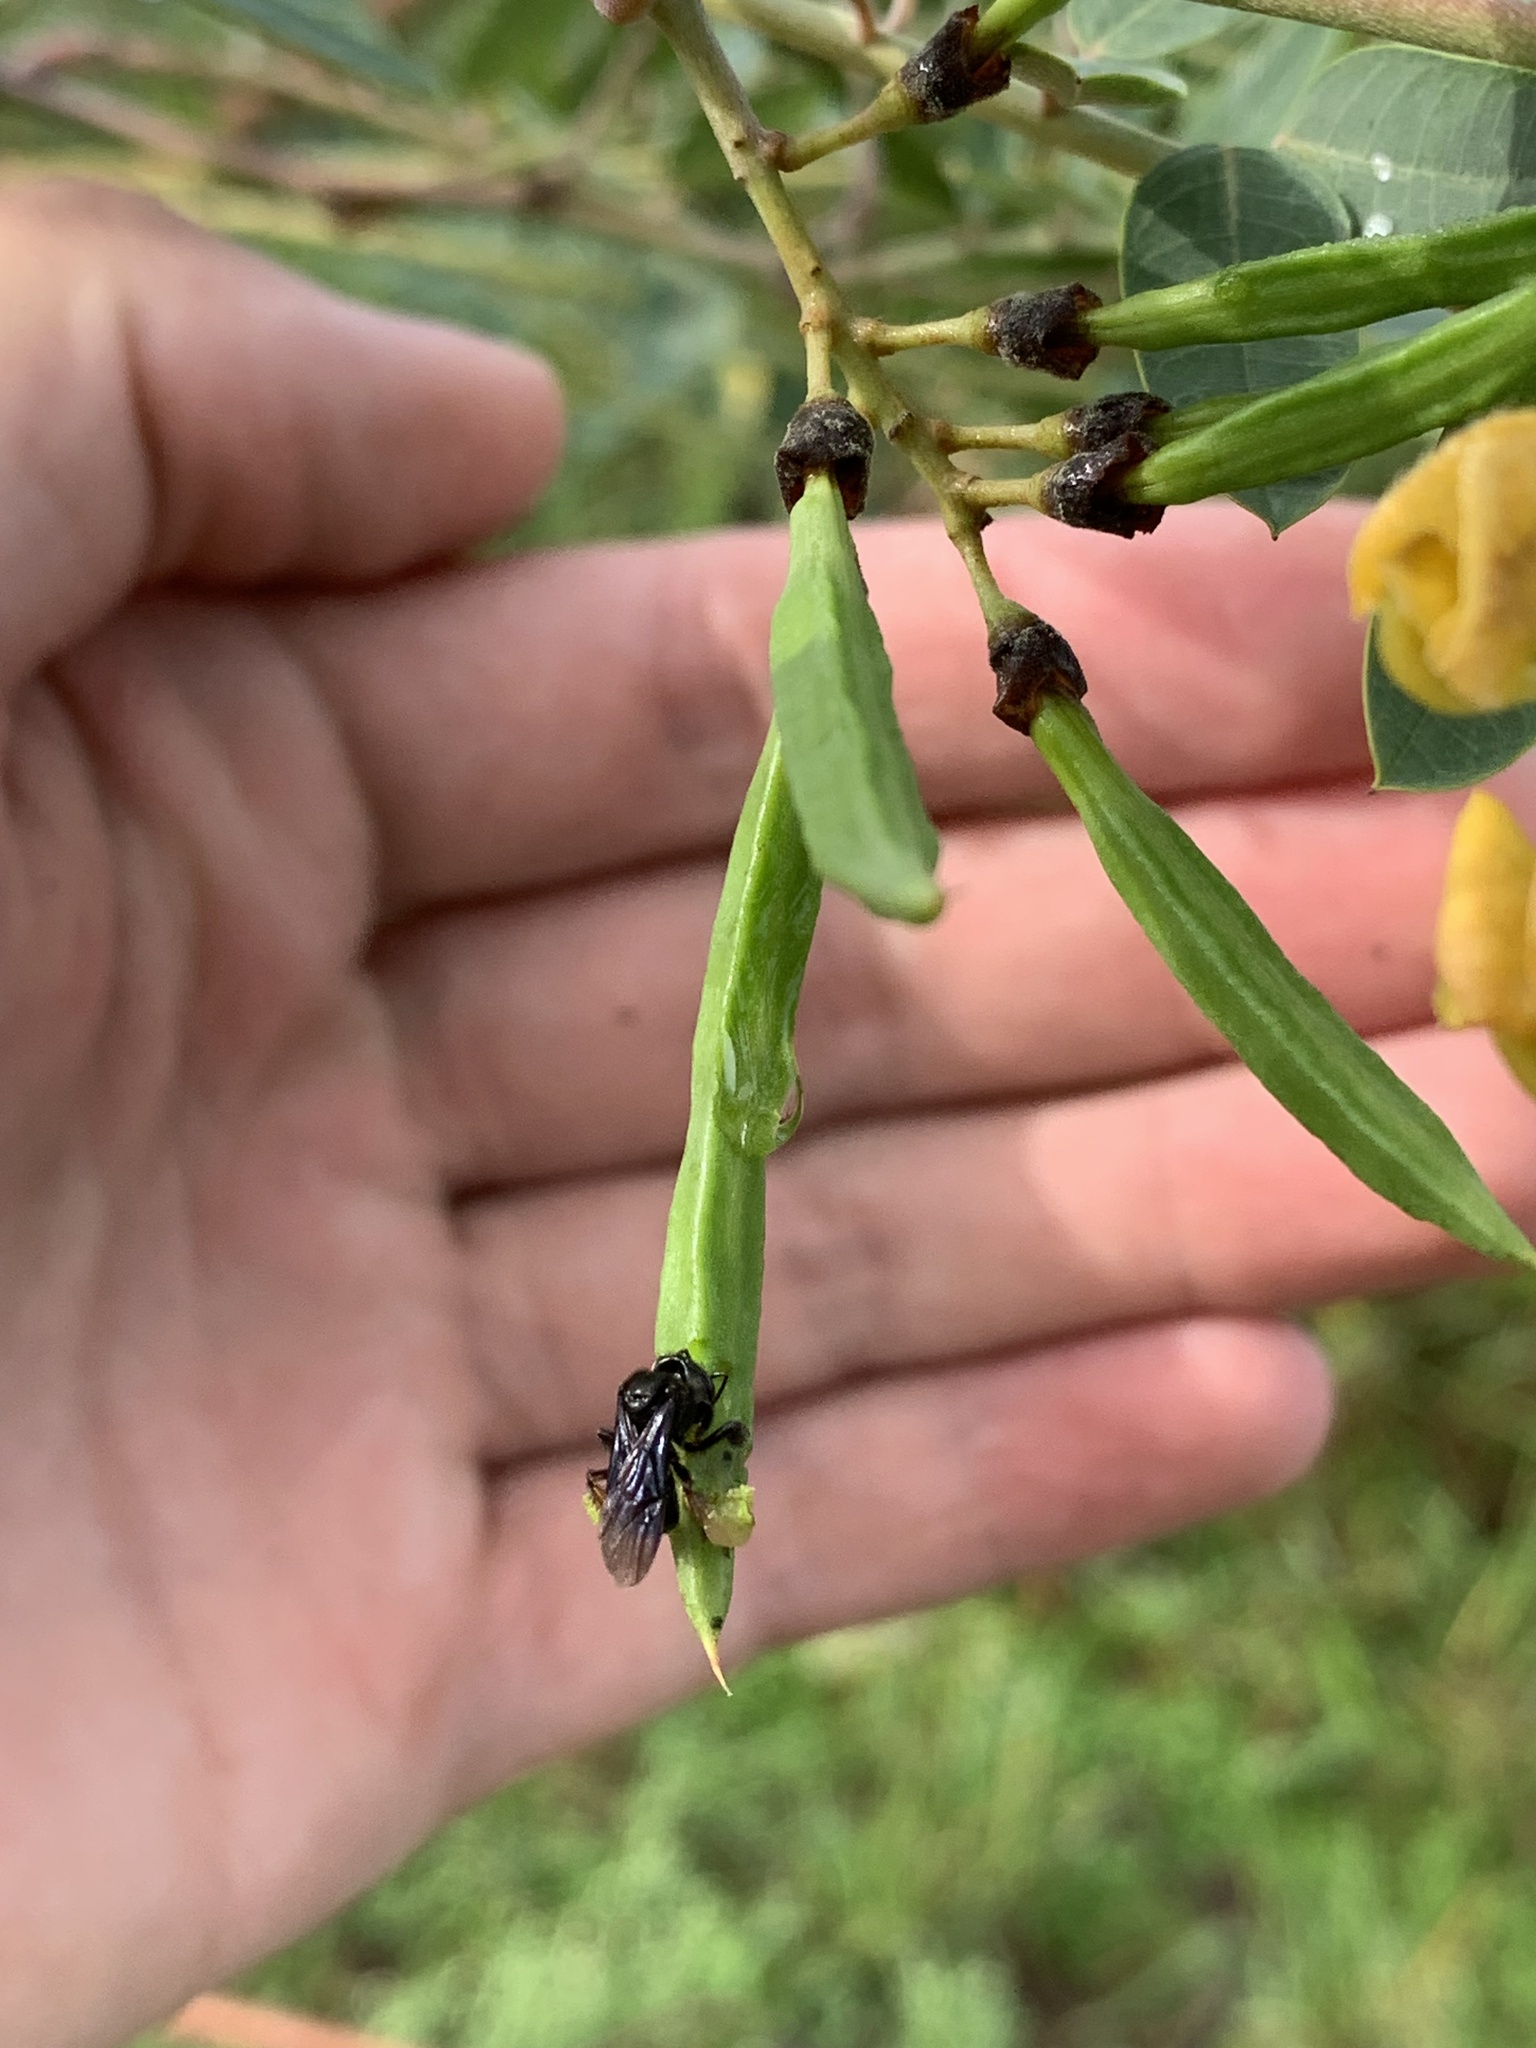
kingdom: Animalia
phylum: Arthropoda
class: Insecta
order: Hymenoptera
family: Apidae
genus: Trigona
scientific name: Trigona spinipes
